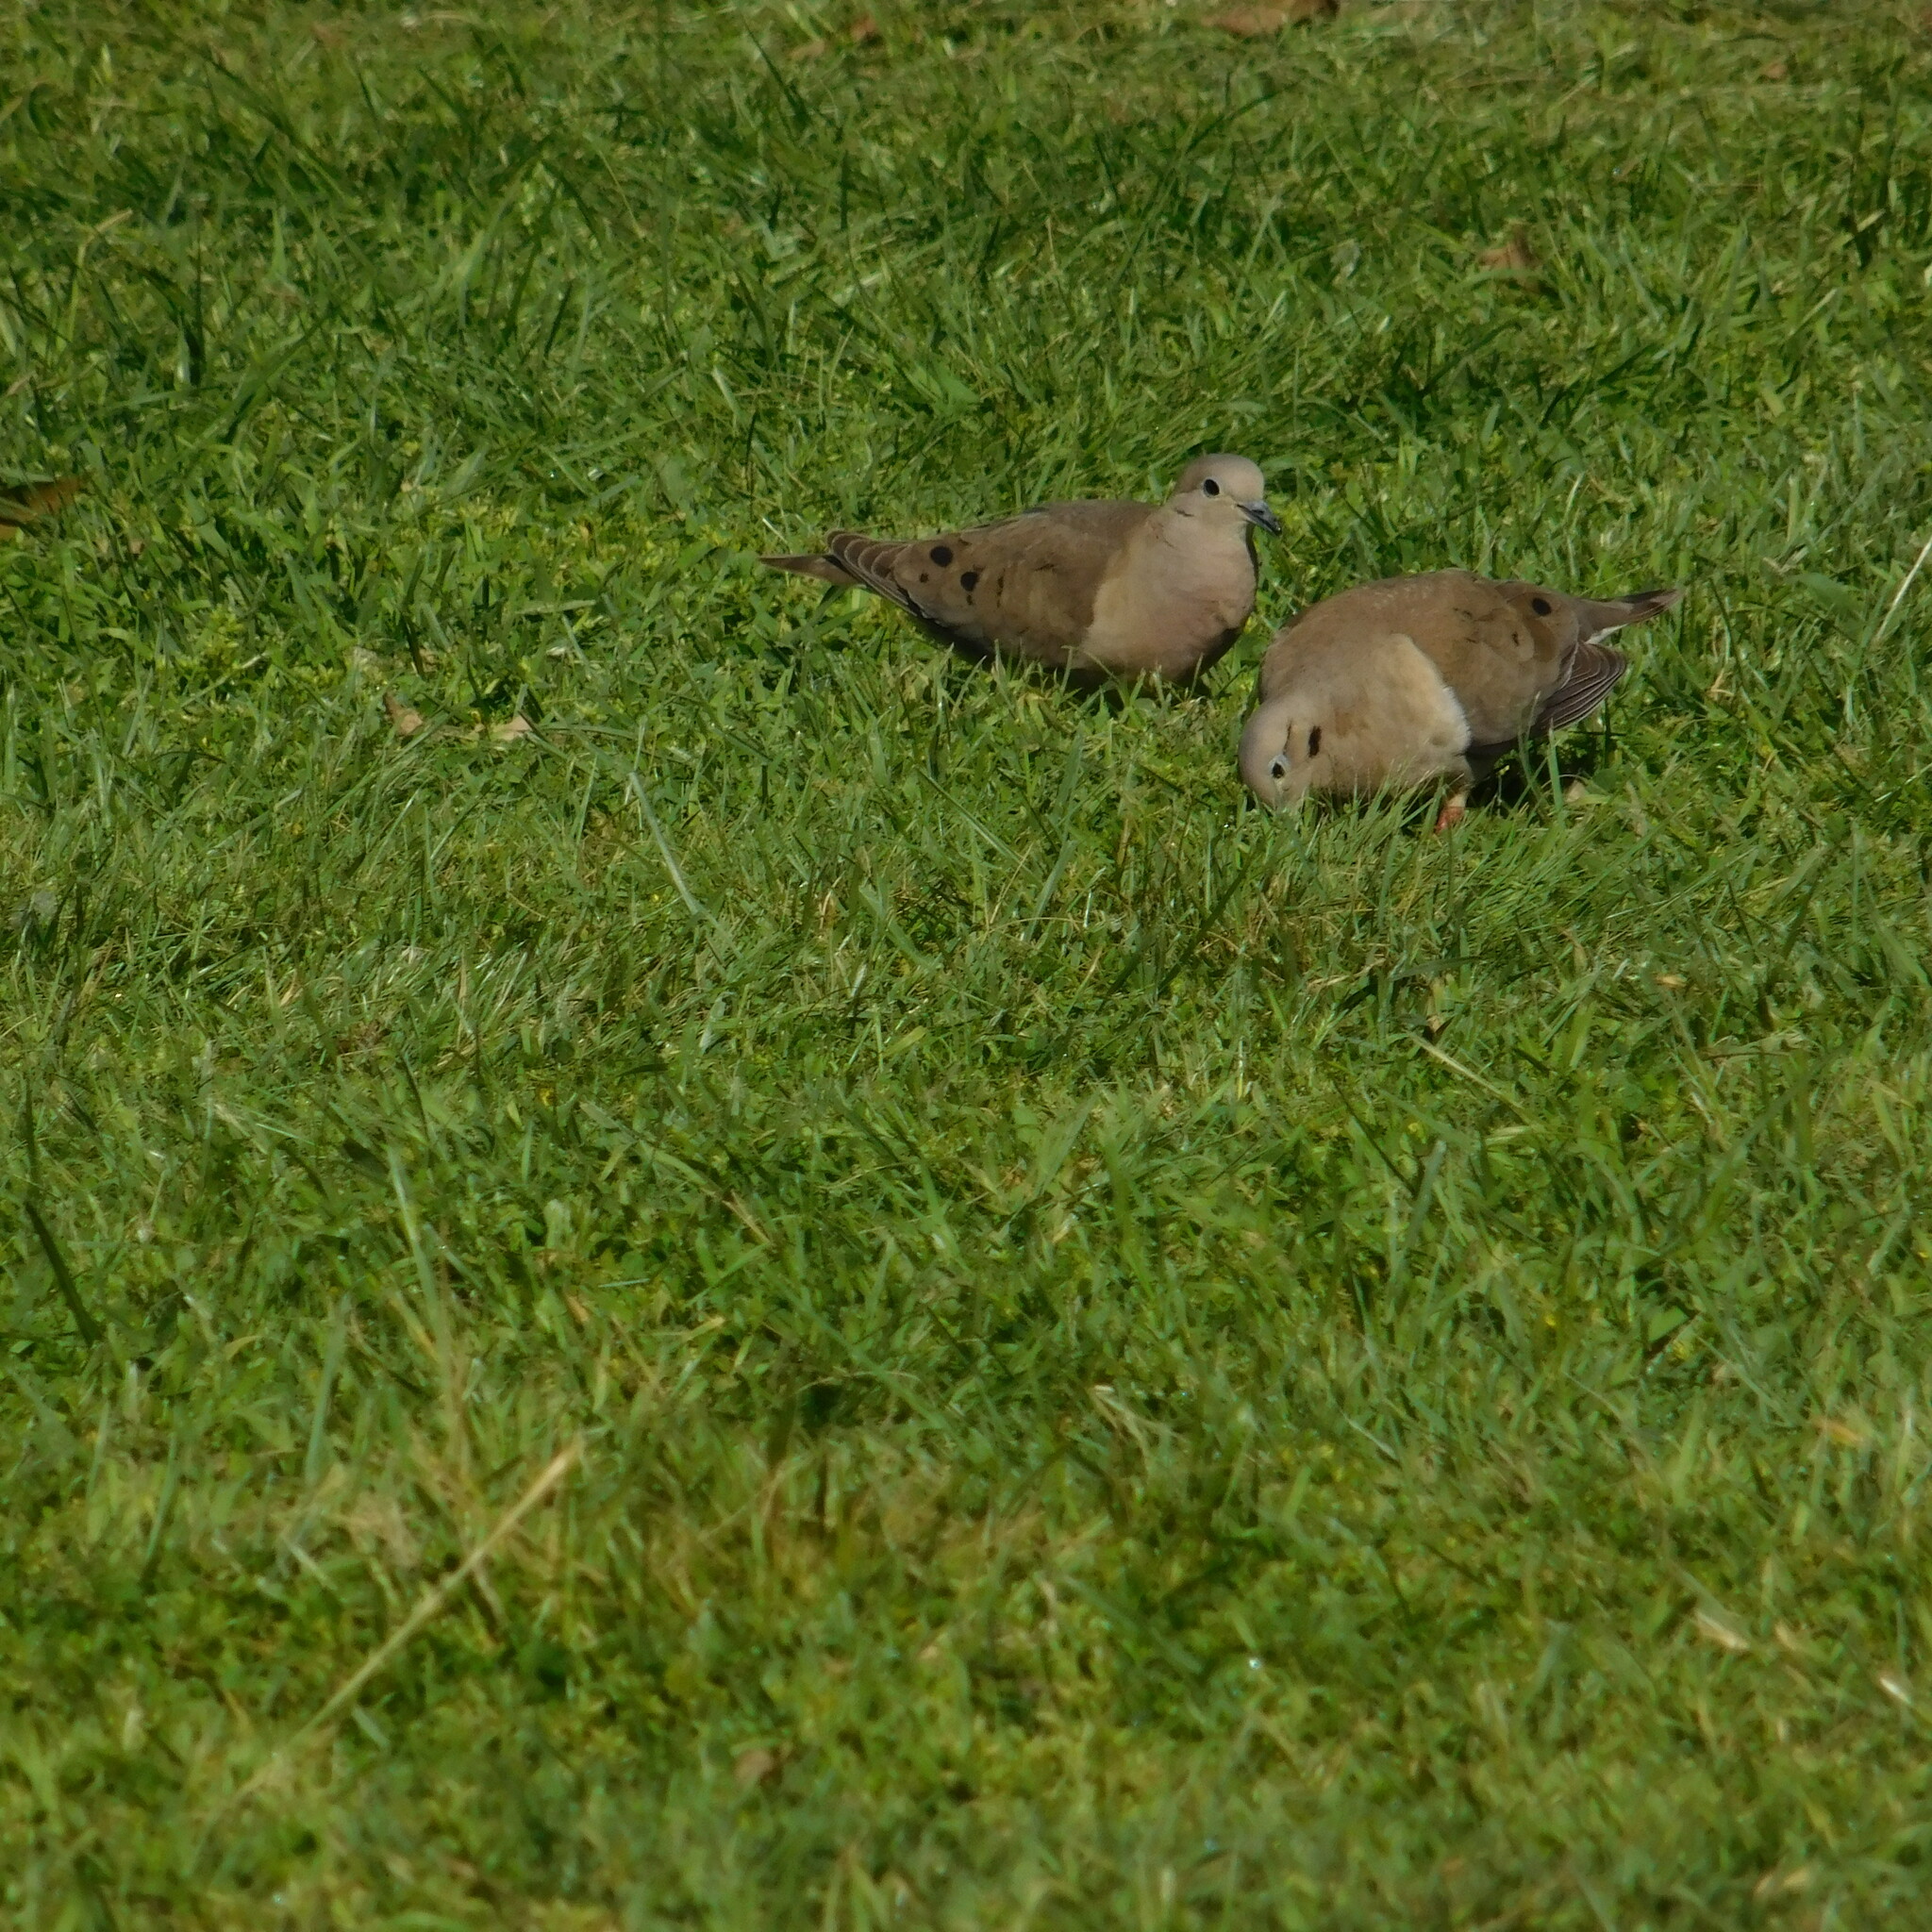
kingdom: Animalia
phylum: Chordata
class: Aves
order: Columbiformes
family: Columbidae
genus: Zenaida
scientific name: Zenaida auriculata
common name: Eared dove
